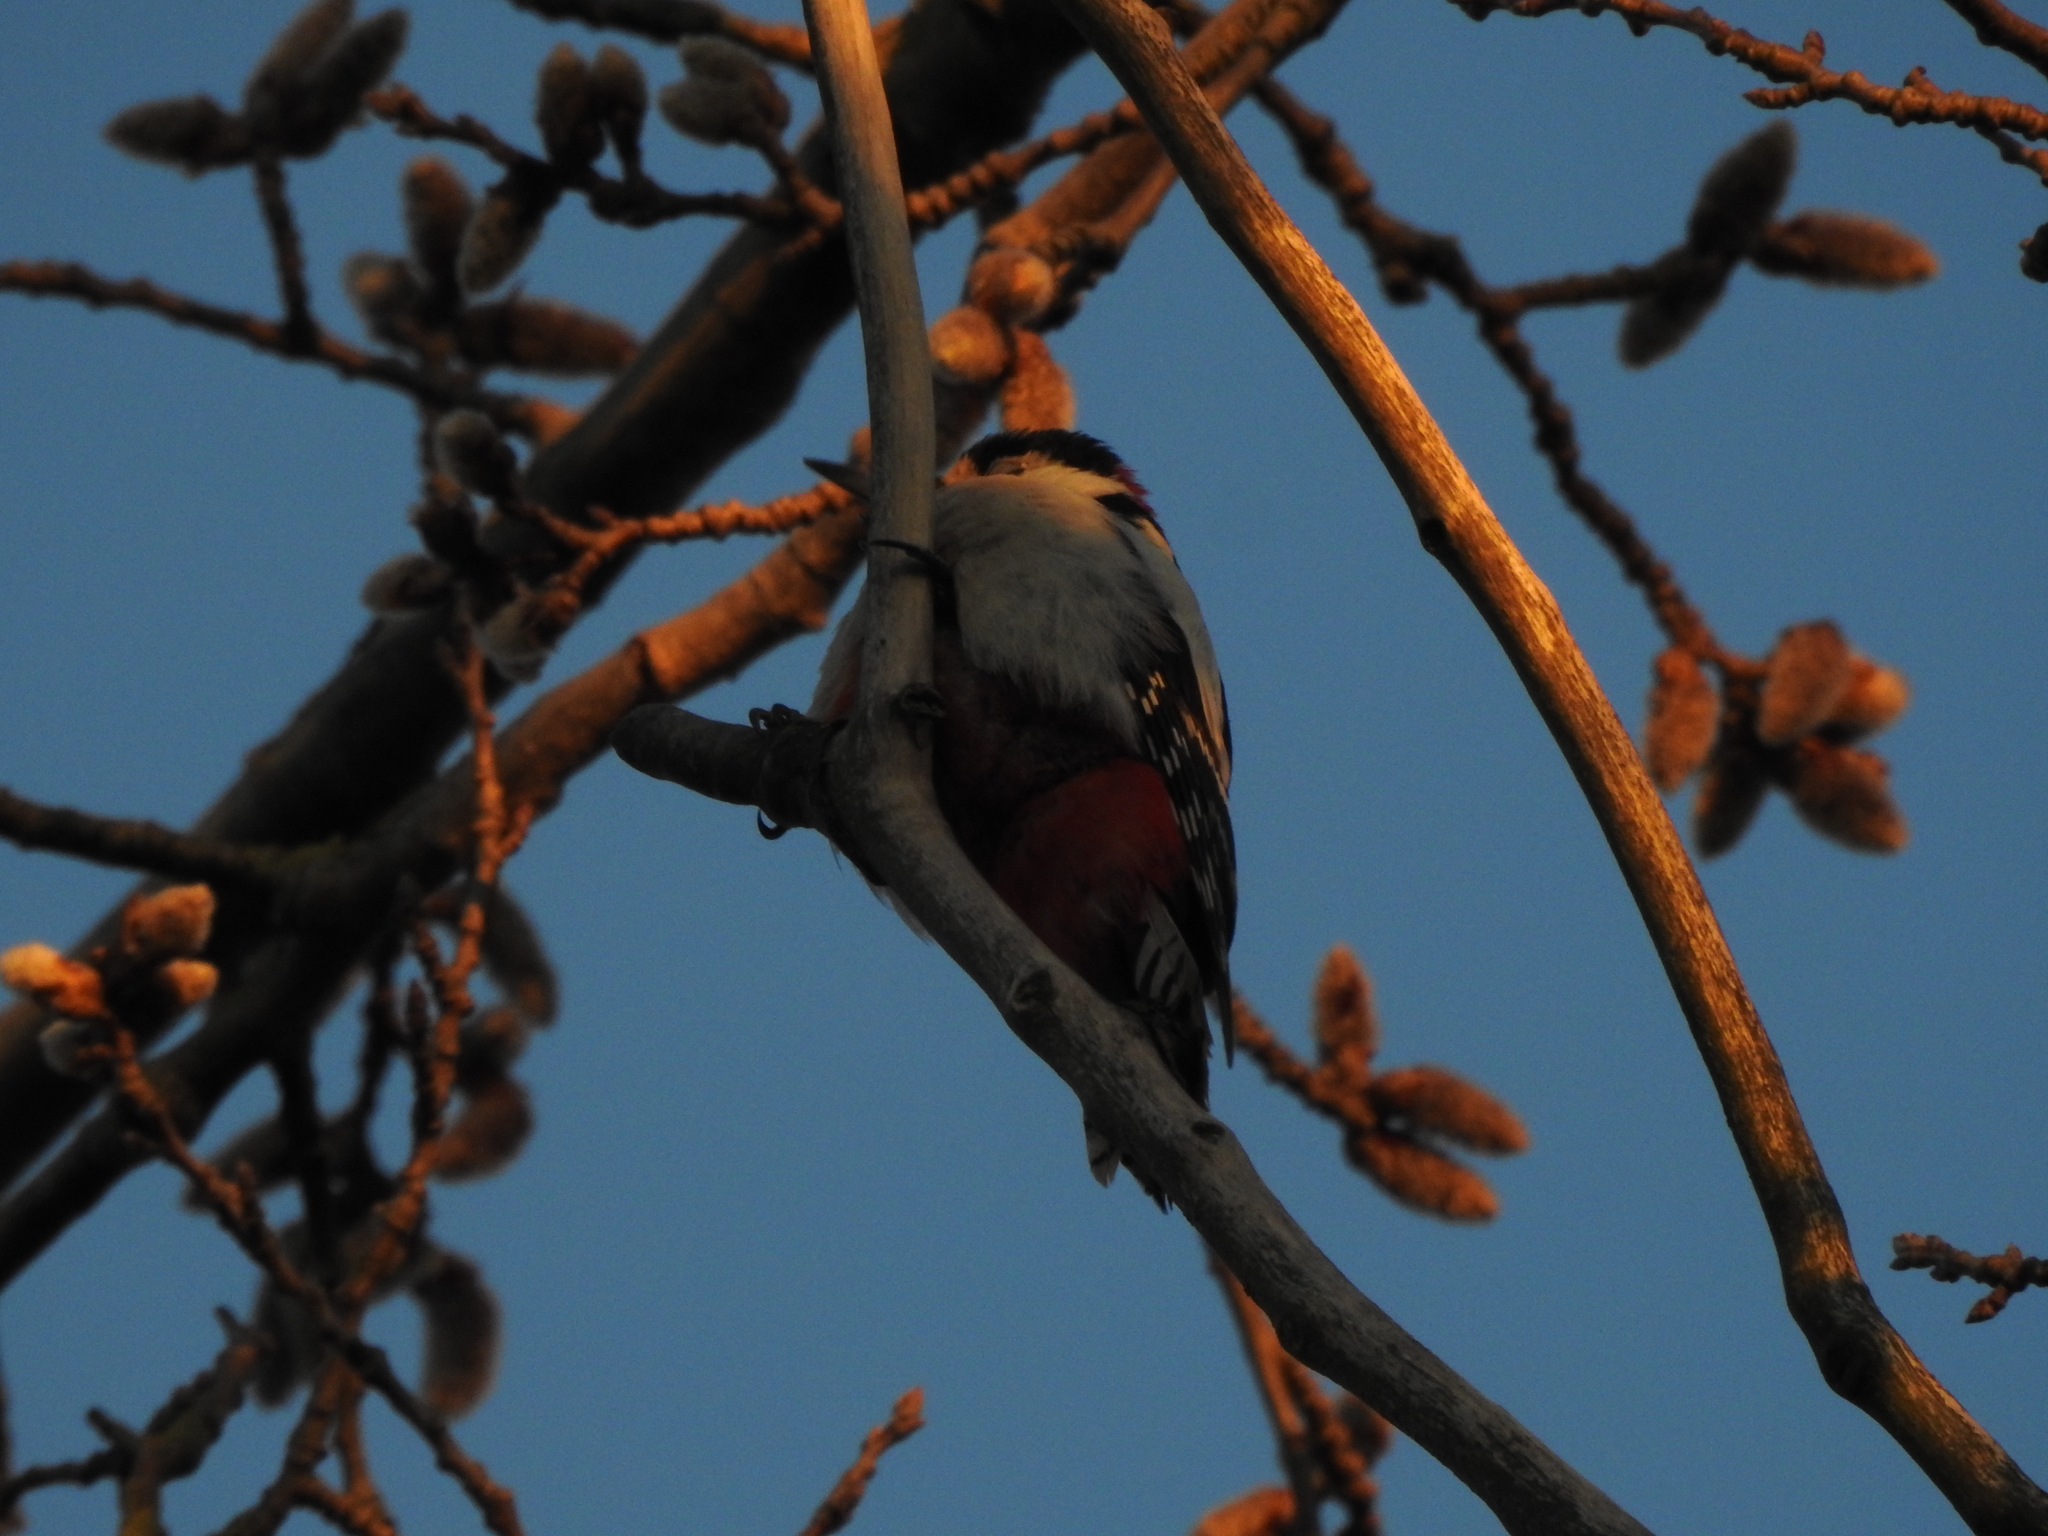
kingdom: Animalia
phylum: Chordata
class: Aves
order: Piciformes
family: Picidae
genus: Dendrocopos
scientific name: Dendrocopos major
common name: Great spotted woodpecker
